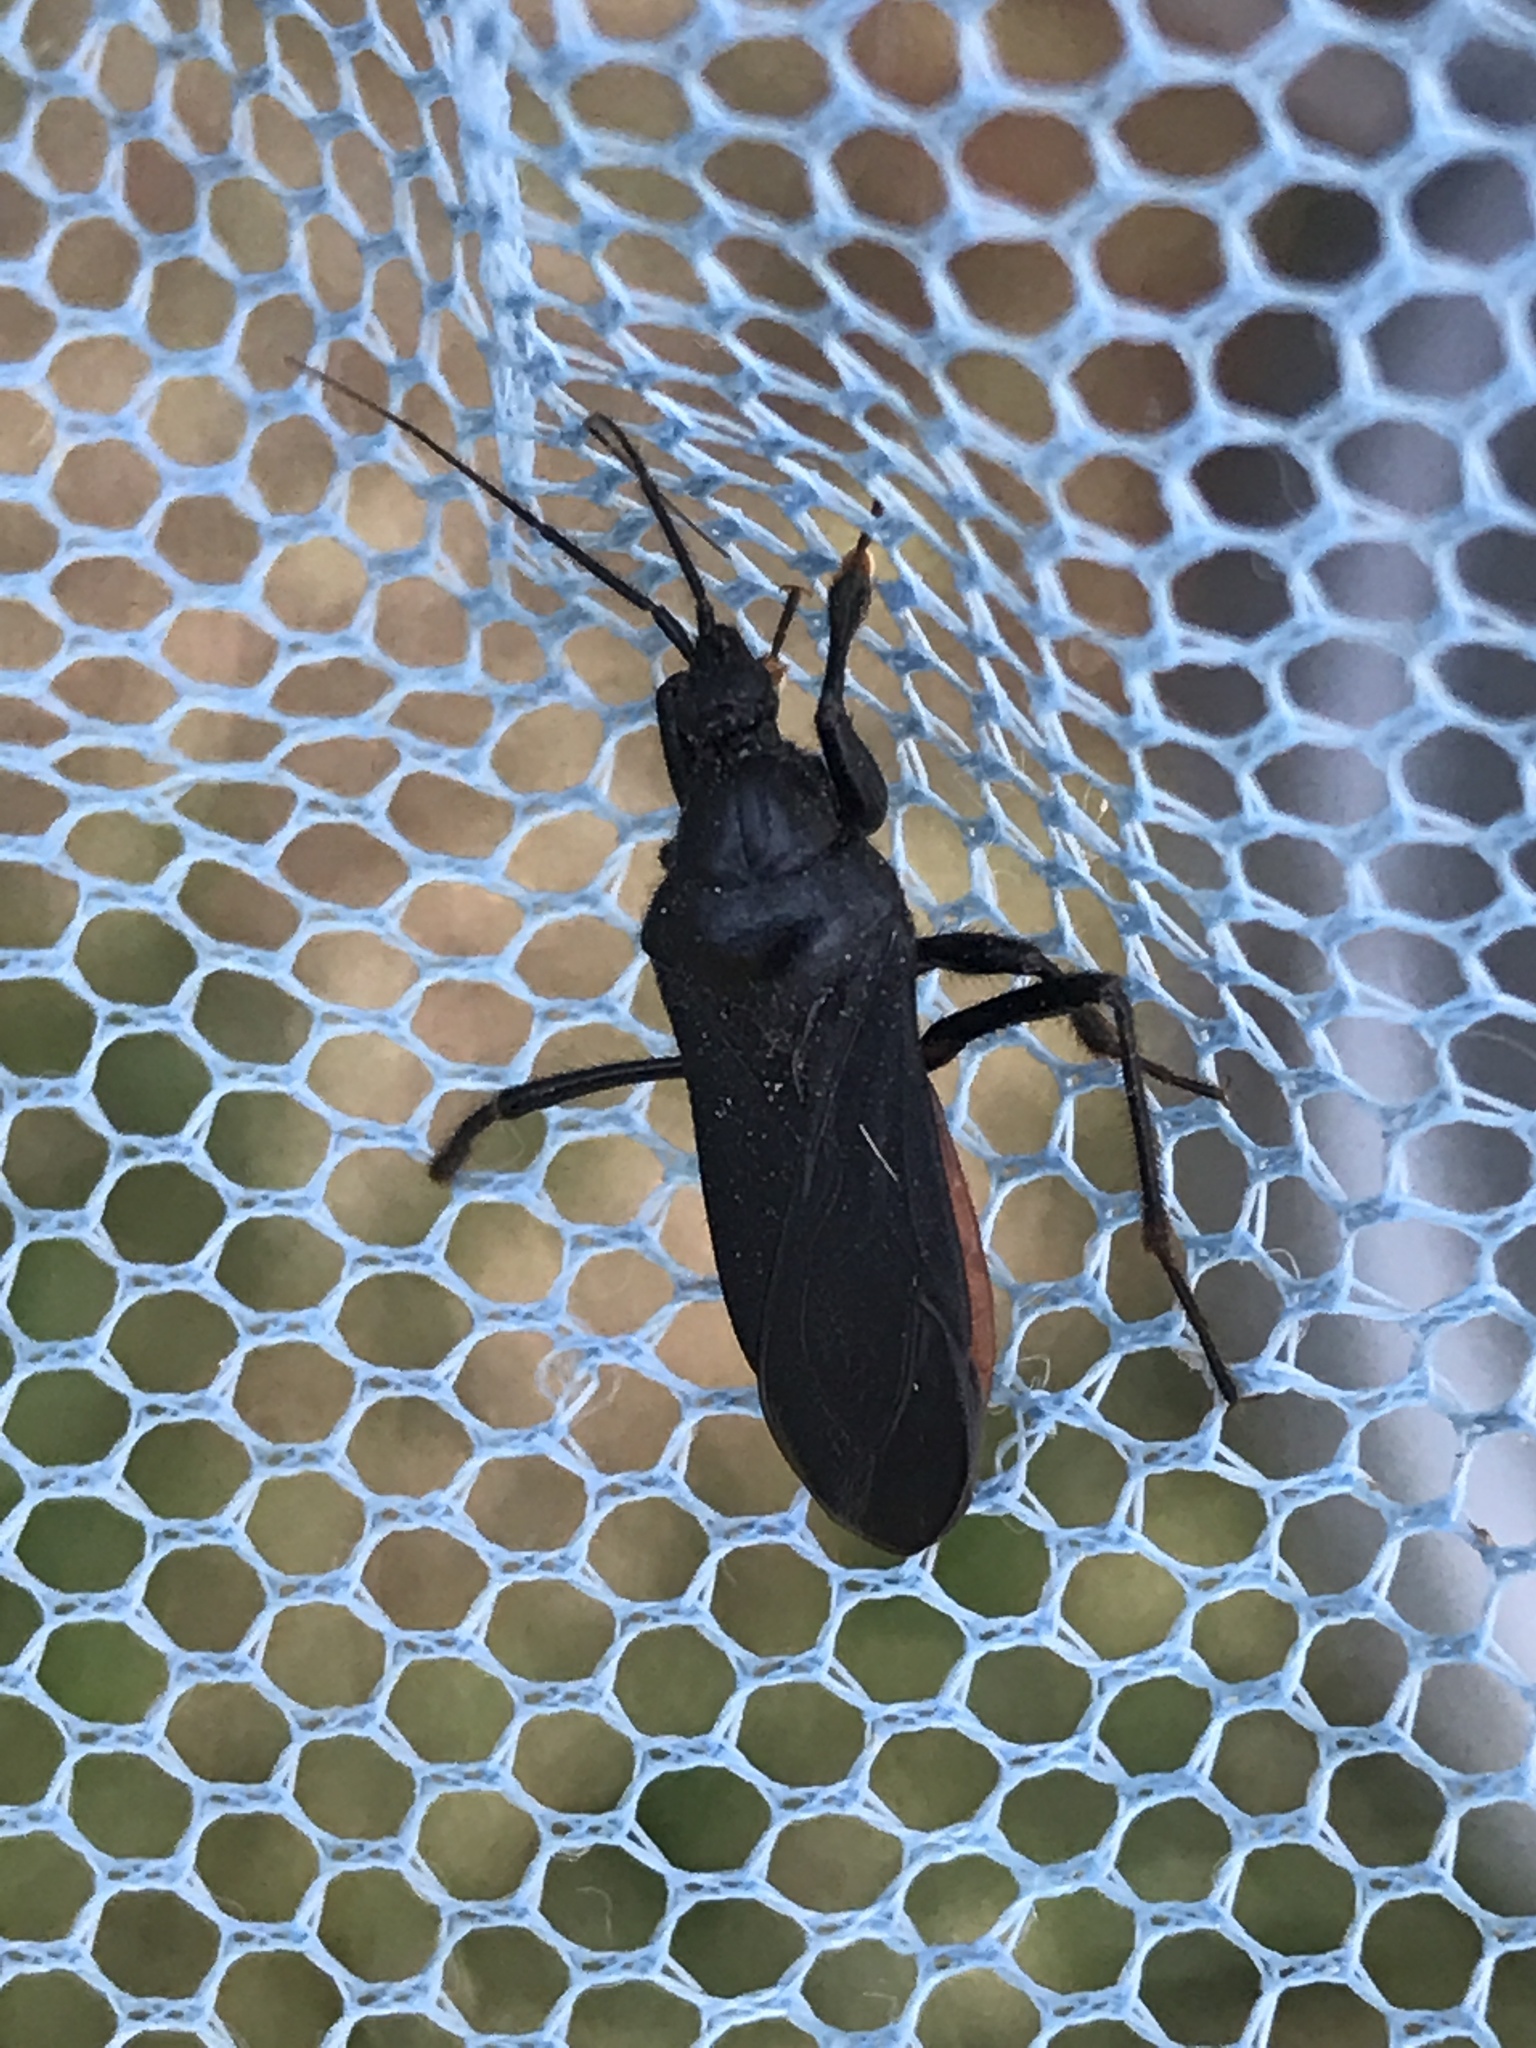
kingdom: Animalia
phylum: Arthropoda
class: Insecta
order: Hemiptera
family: Reduviidae
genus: Melanolestes
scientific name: Melanolestes picipes
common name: Assassin bug
